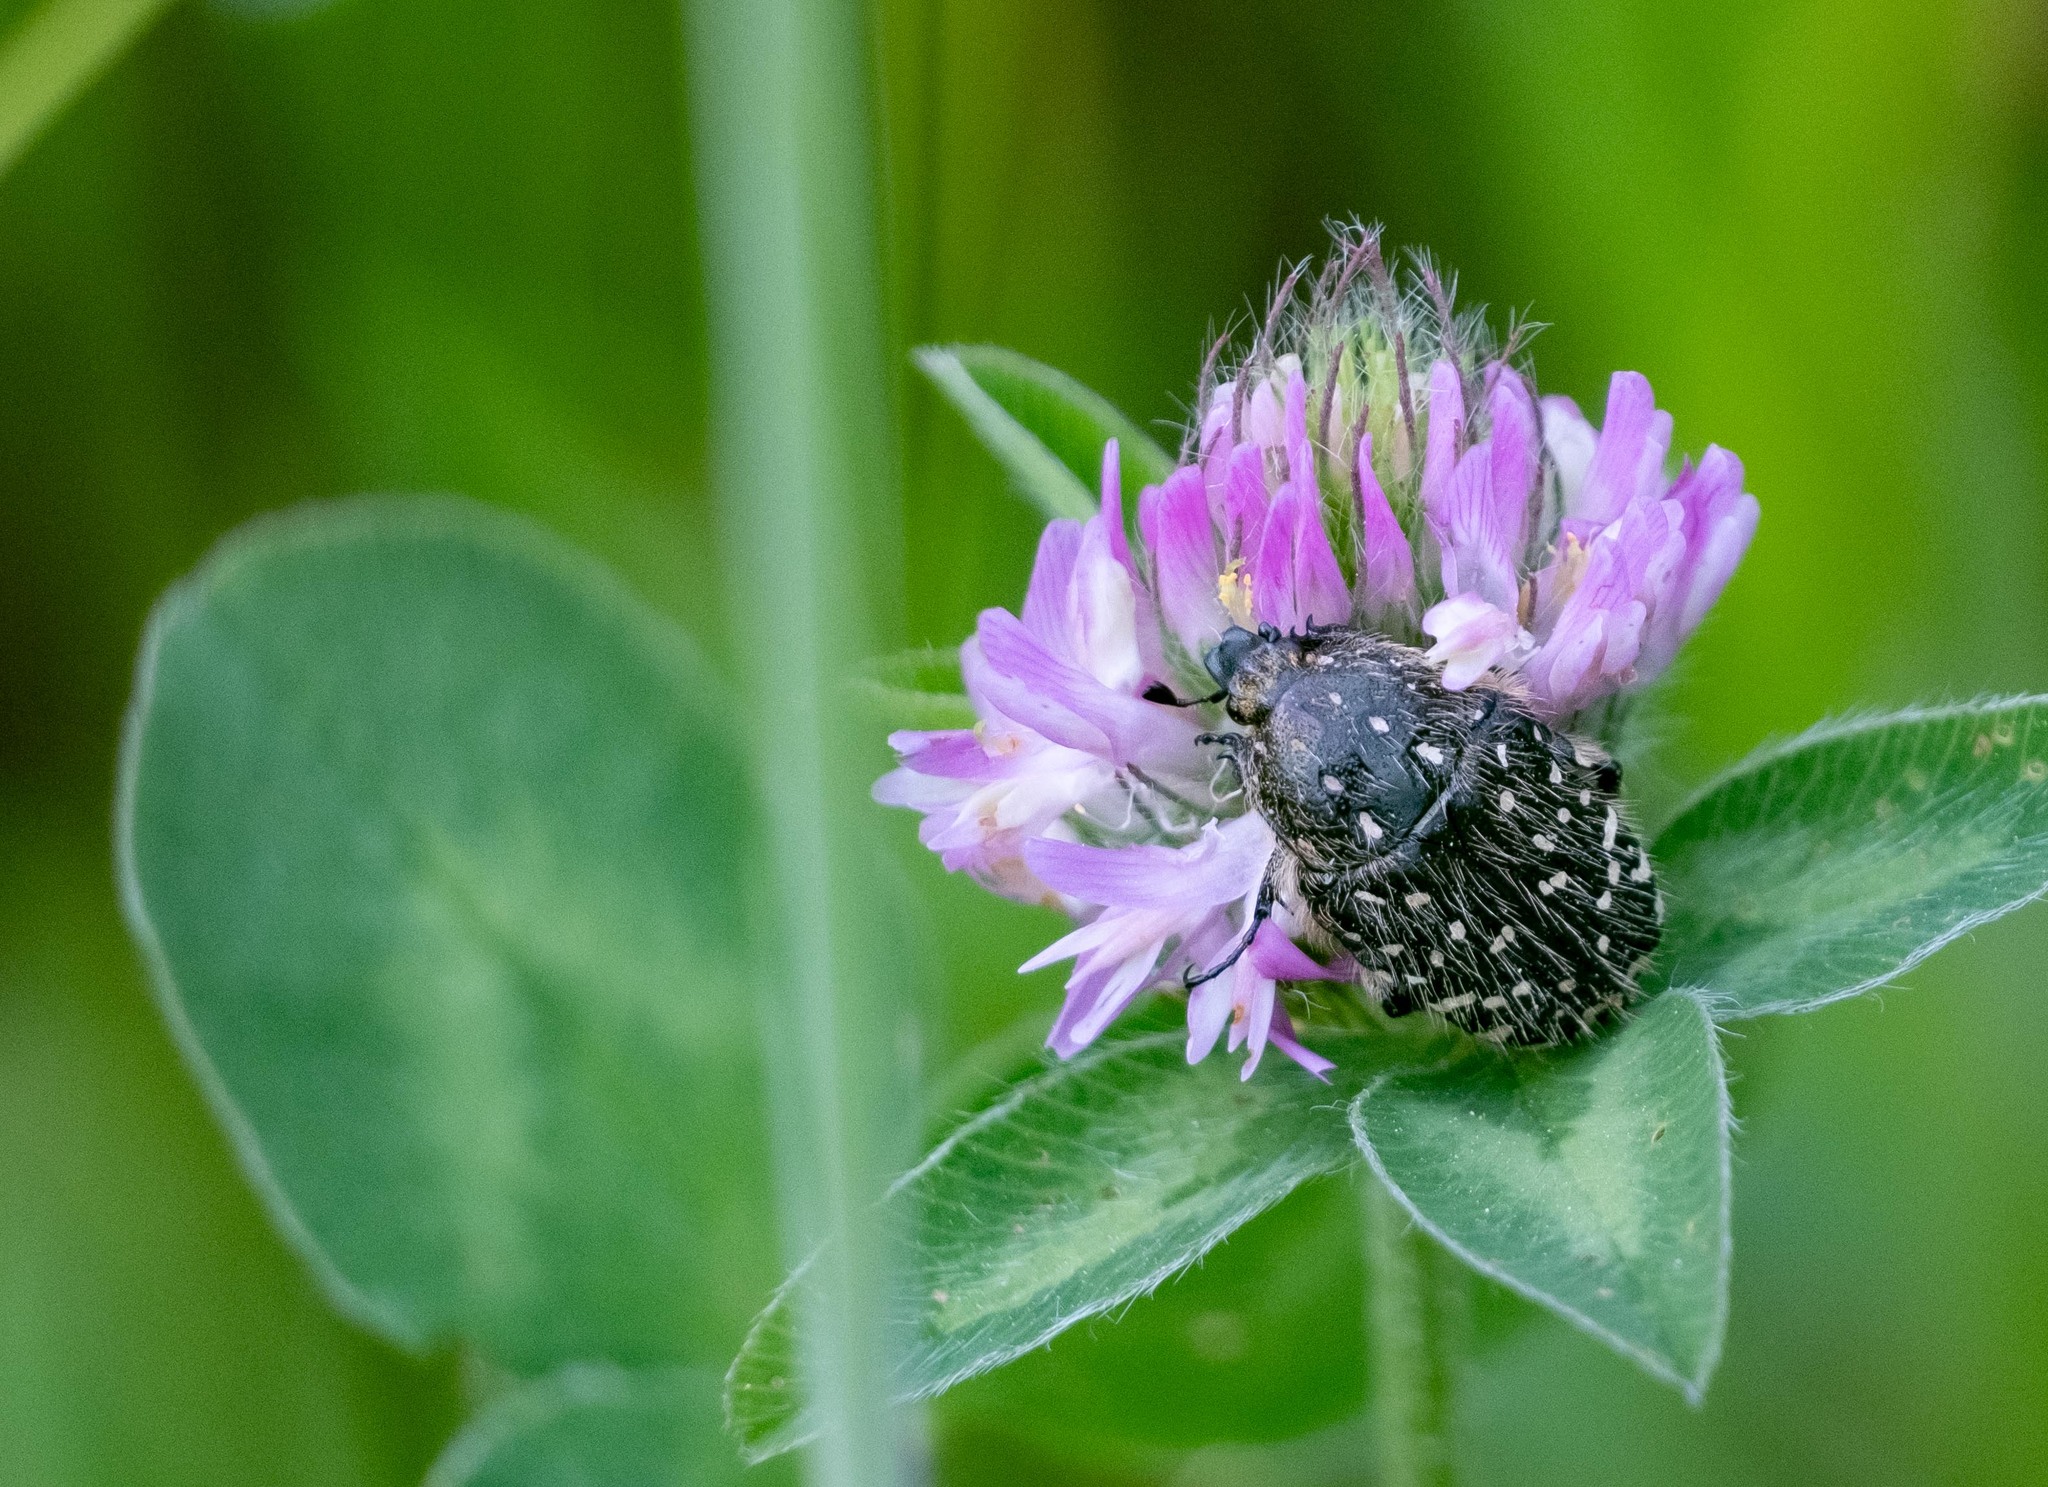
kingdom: Animalia
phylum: Arthropoda
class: Insecta
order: Coleoptera
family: Scarabaeidae
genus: Oxythyrea
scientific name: Oxythyrea funesta
